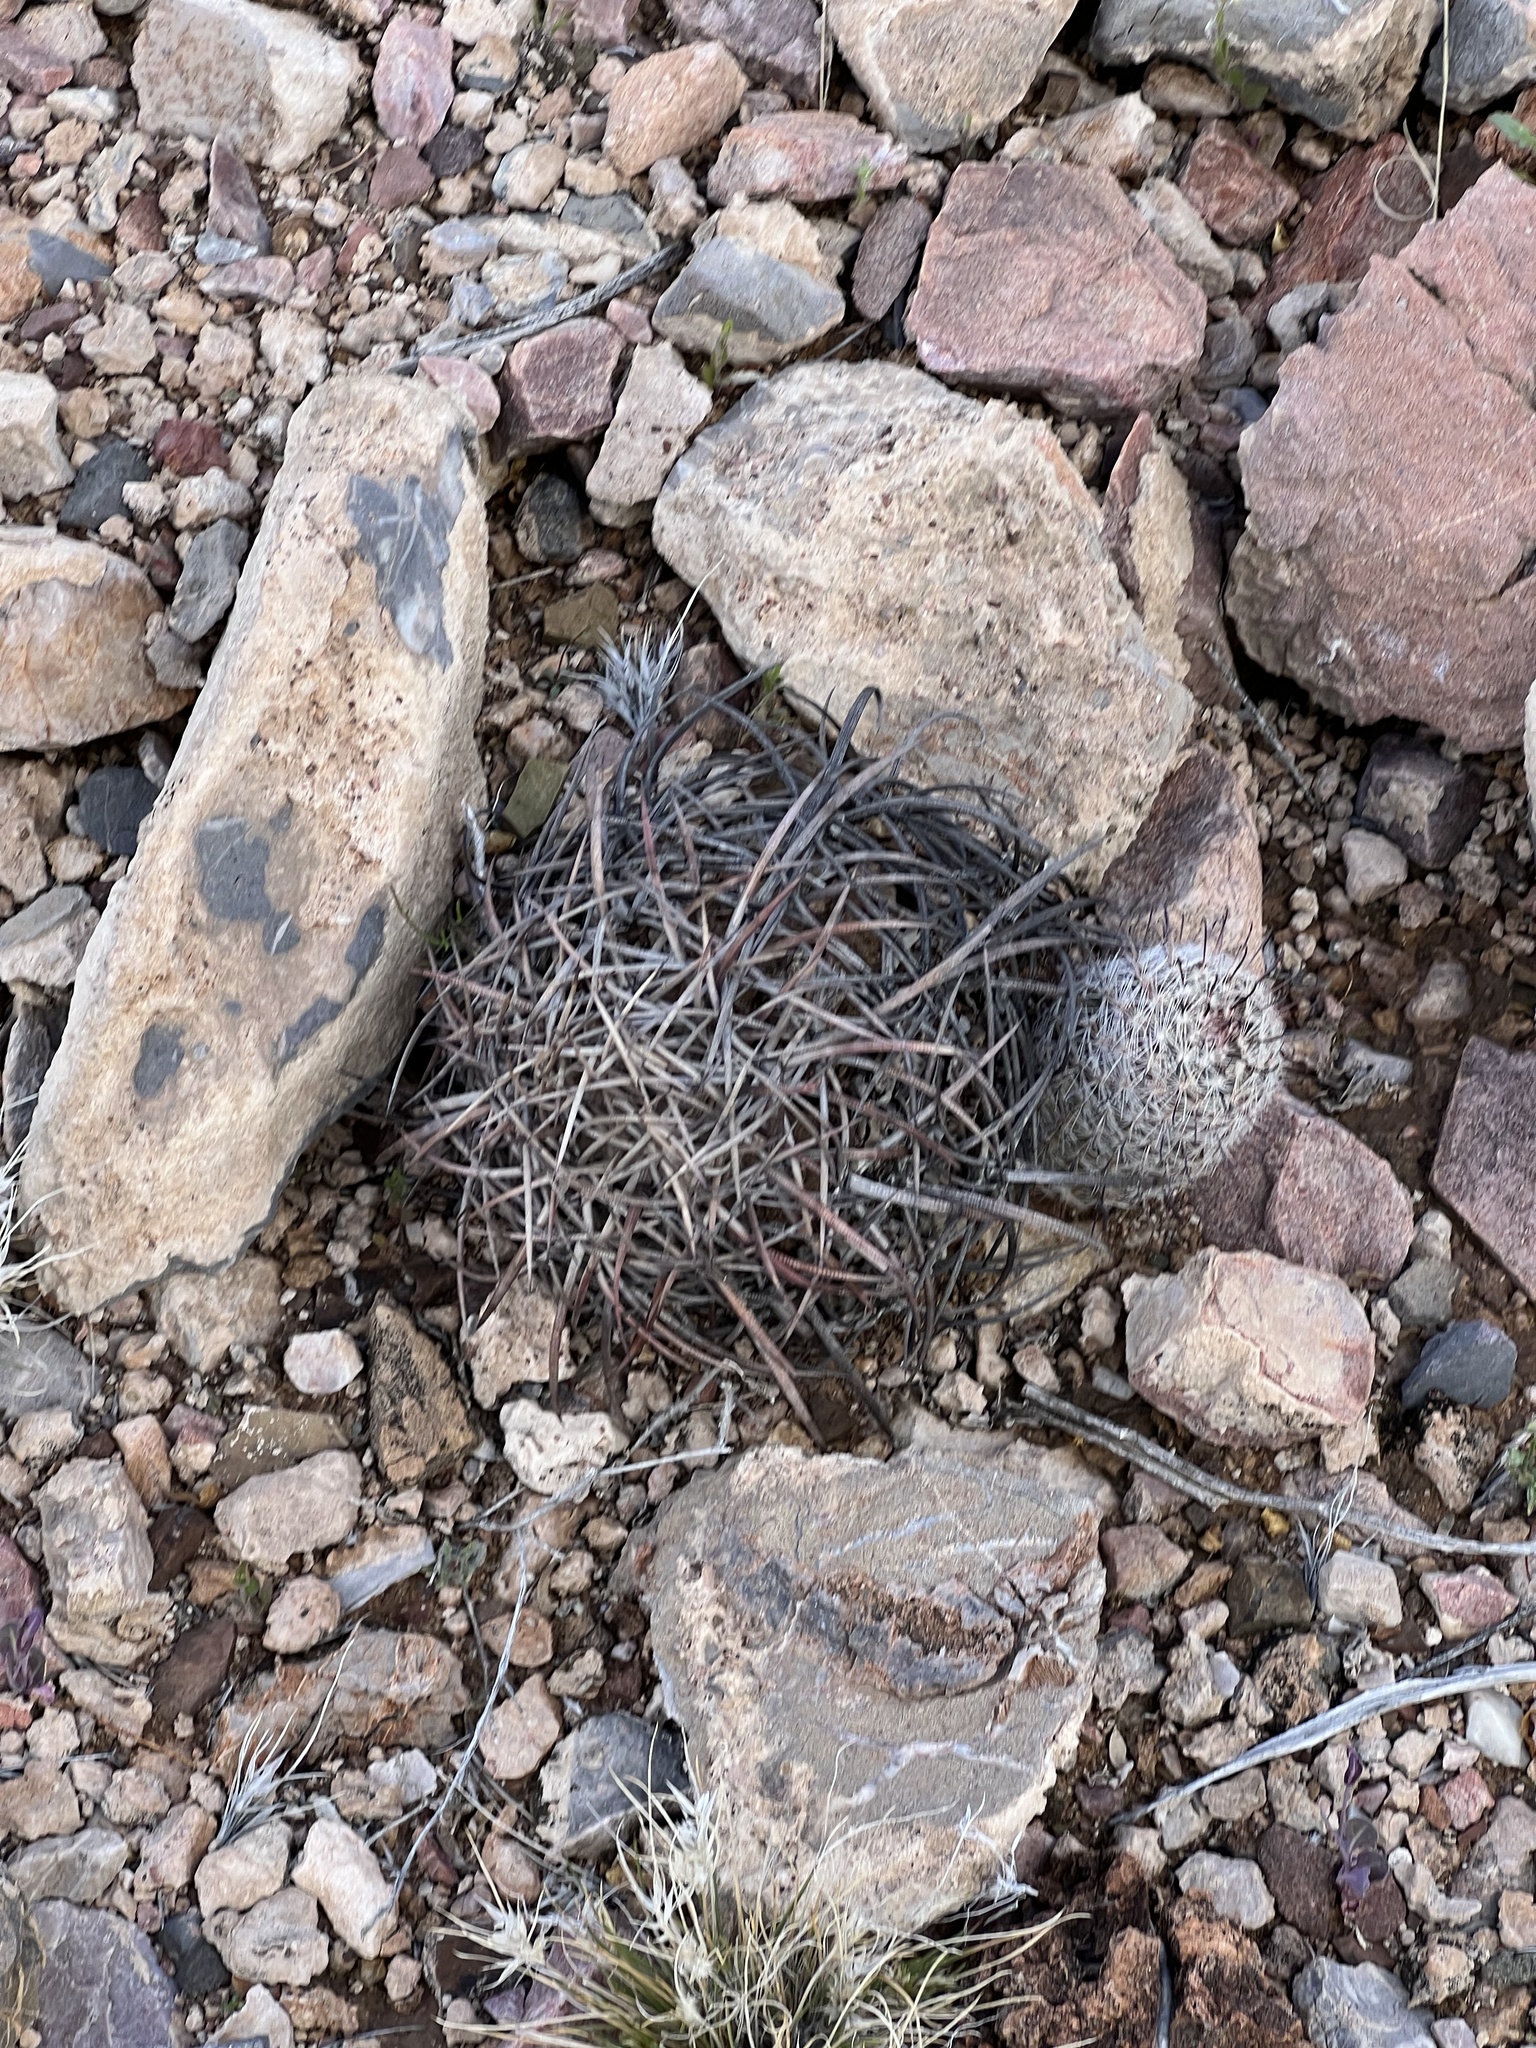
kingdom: Plantae
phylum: Tracheophyta
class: Magnoliopsida
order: Caryophyllales
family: Cactaceae
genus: Echinocactus
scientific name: Echinocactus horizonthalonius
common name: Devilshead
